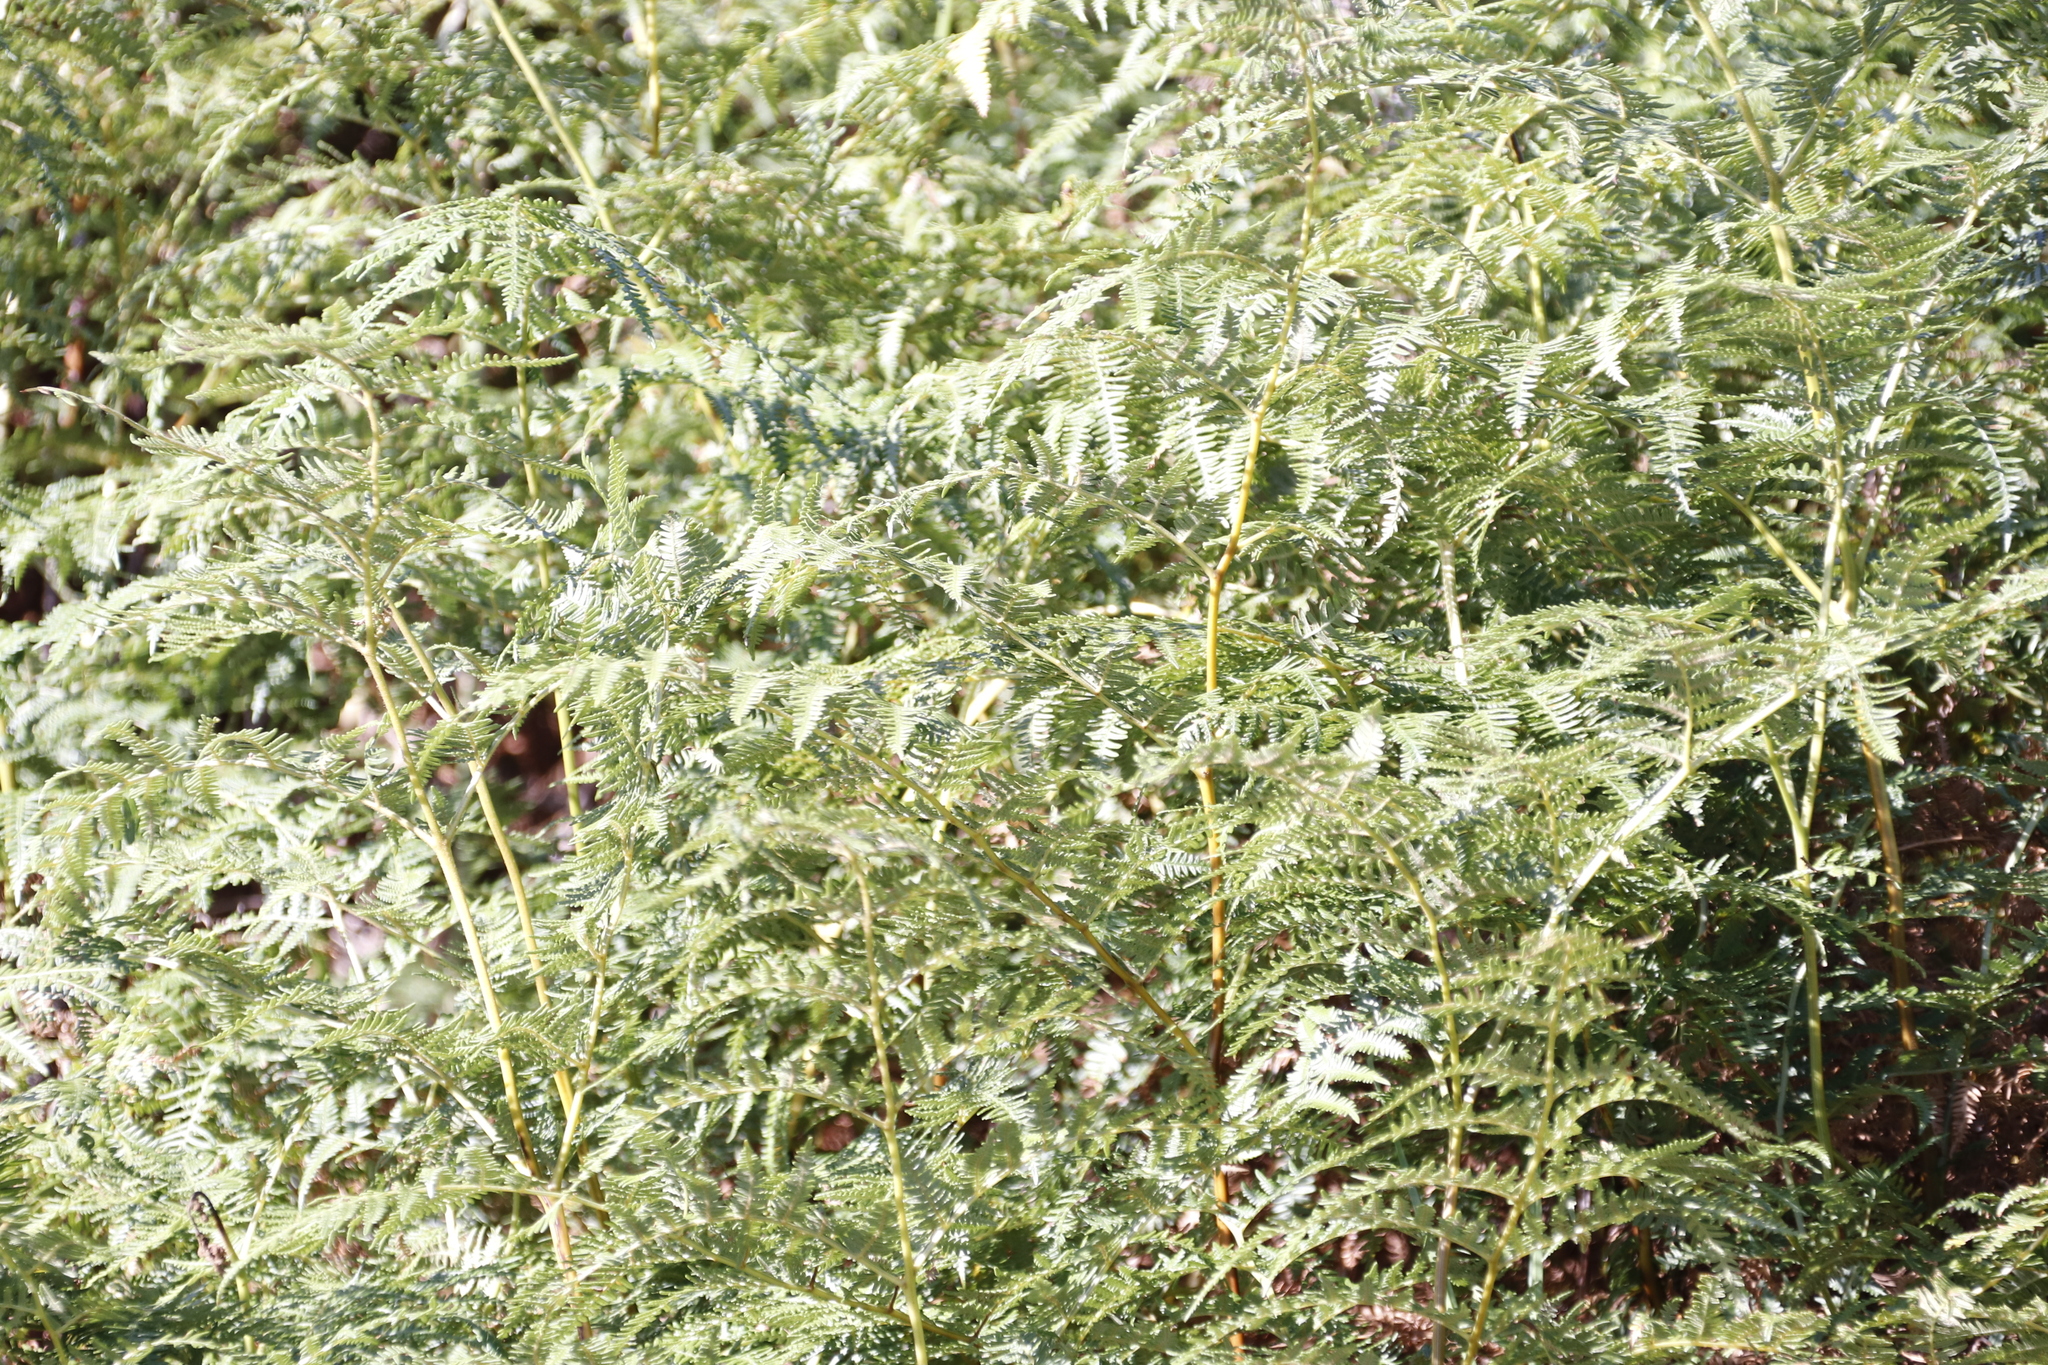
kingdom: Plantae
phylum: Tracheophyta
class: Polypodiopsida
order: Polypodiales
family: Dennstaedtiaceae
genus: Pteridium
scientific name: Pteridium aquilinum
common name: Bracken
